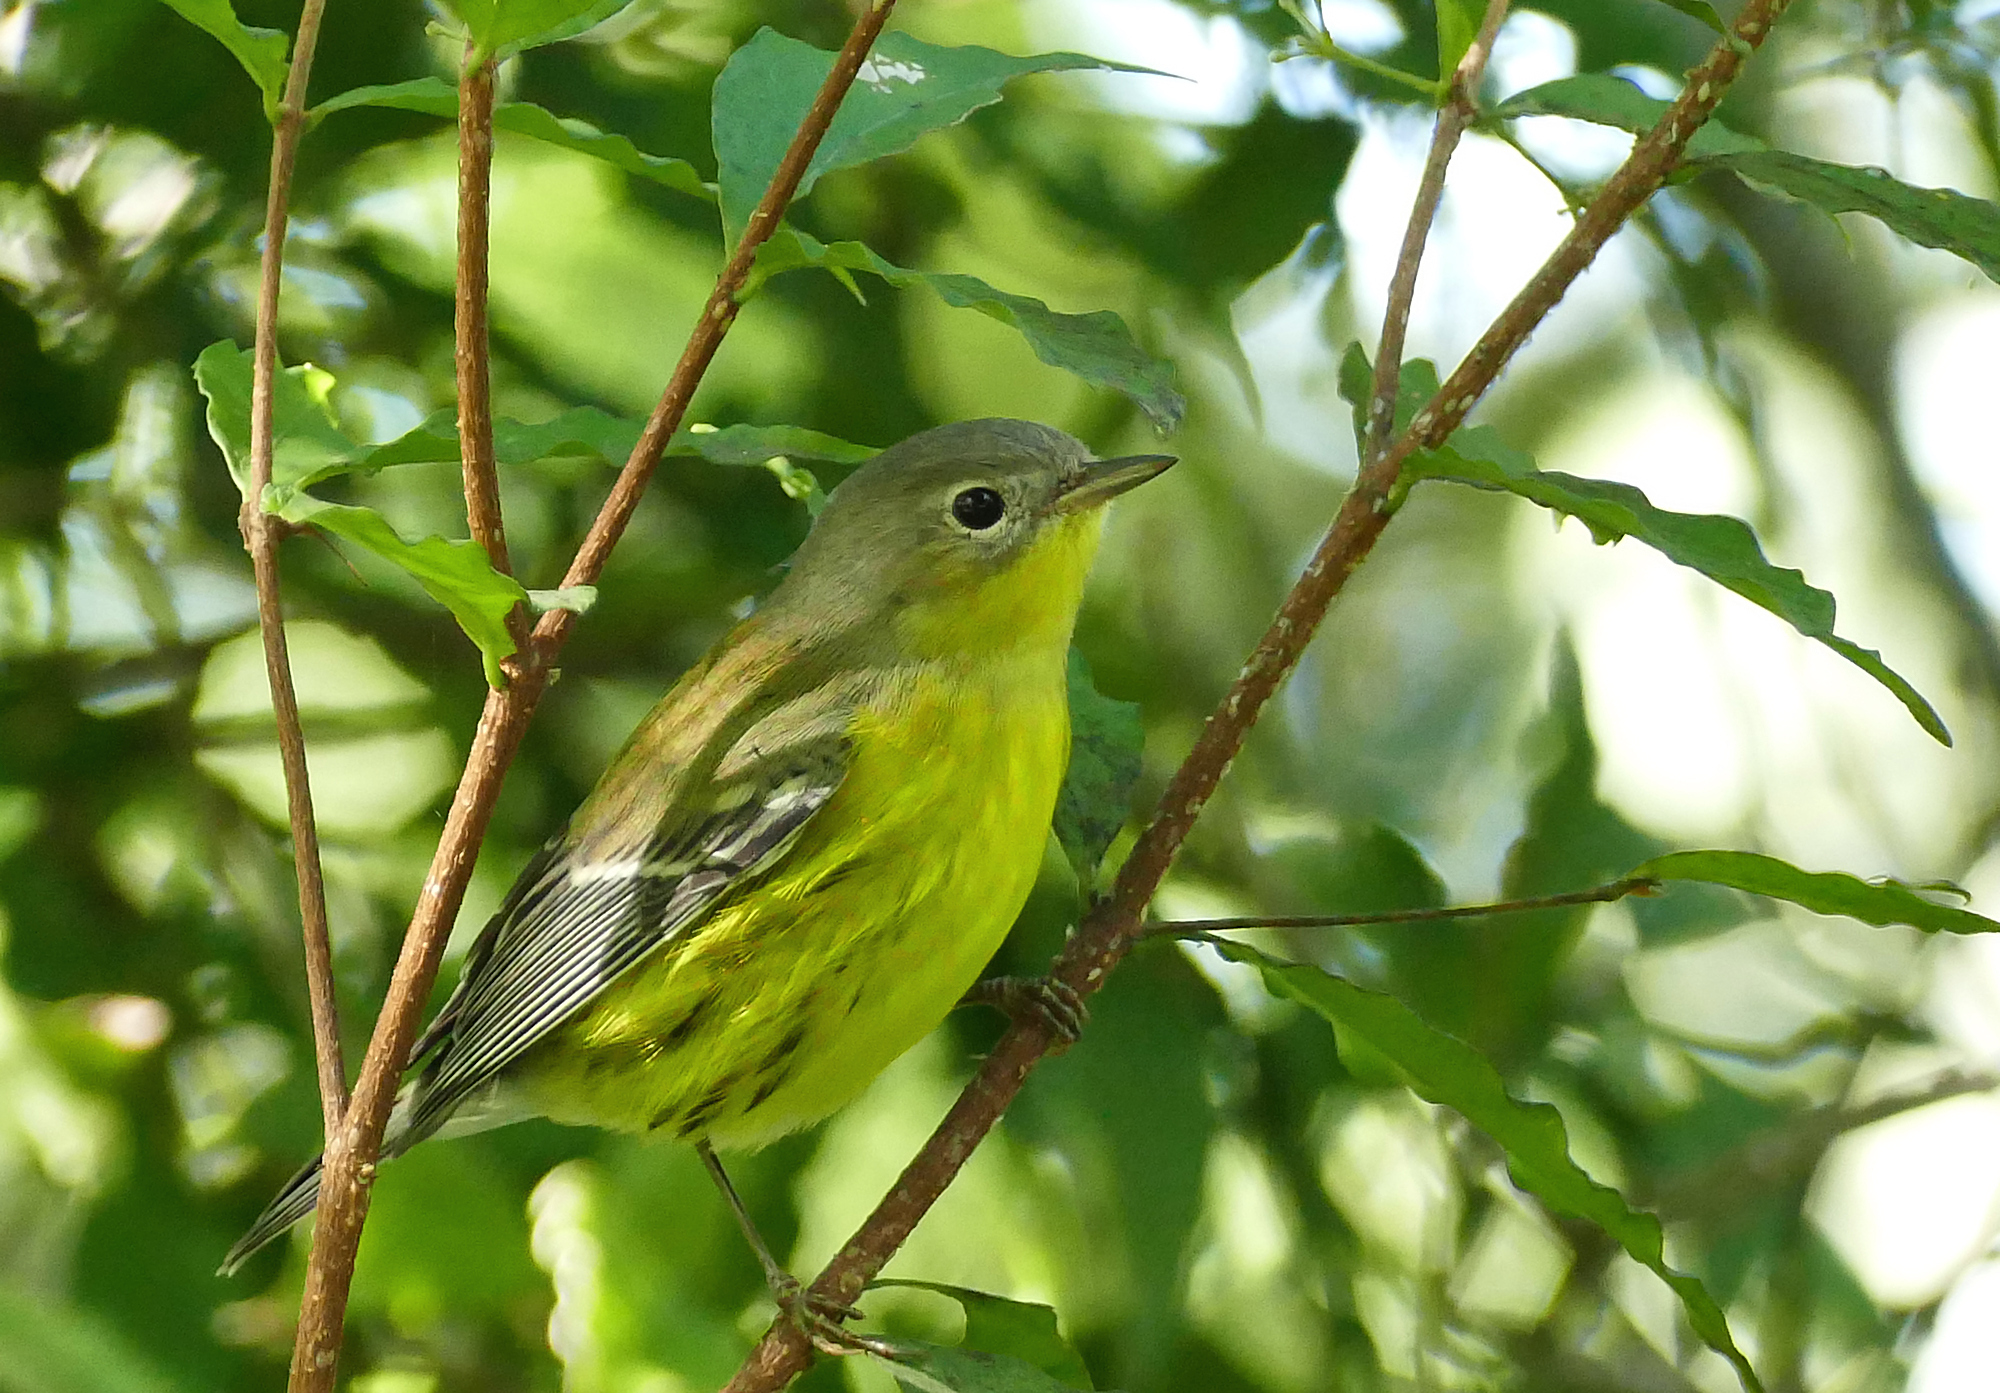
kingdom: Animalia
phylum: Chordata
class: Aves
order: Passeriformes
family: Parulidae
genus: Setophaga
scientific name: Setophaga magnolia
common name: Magnolia warbler
